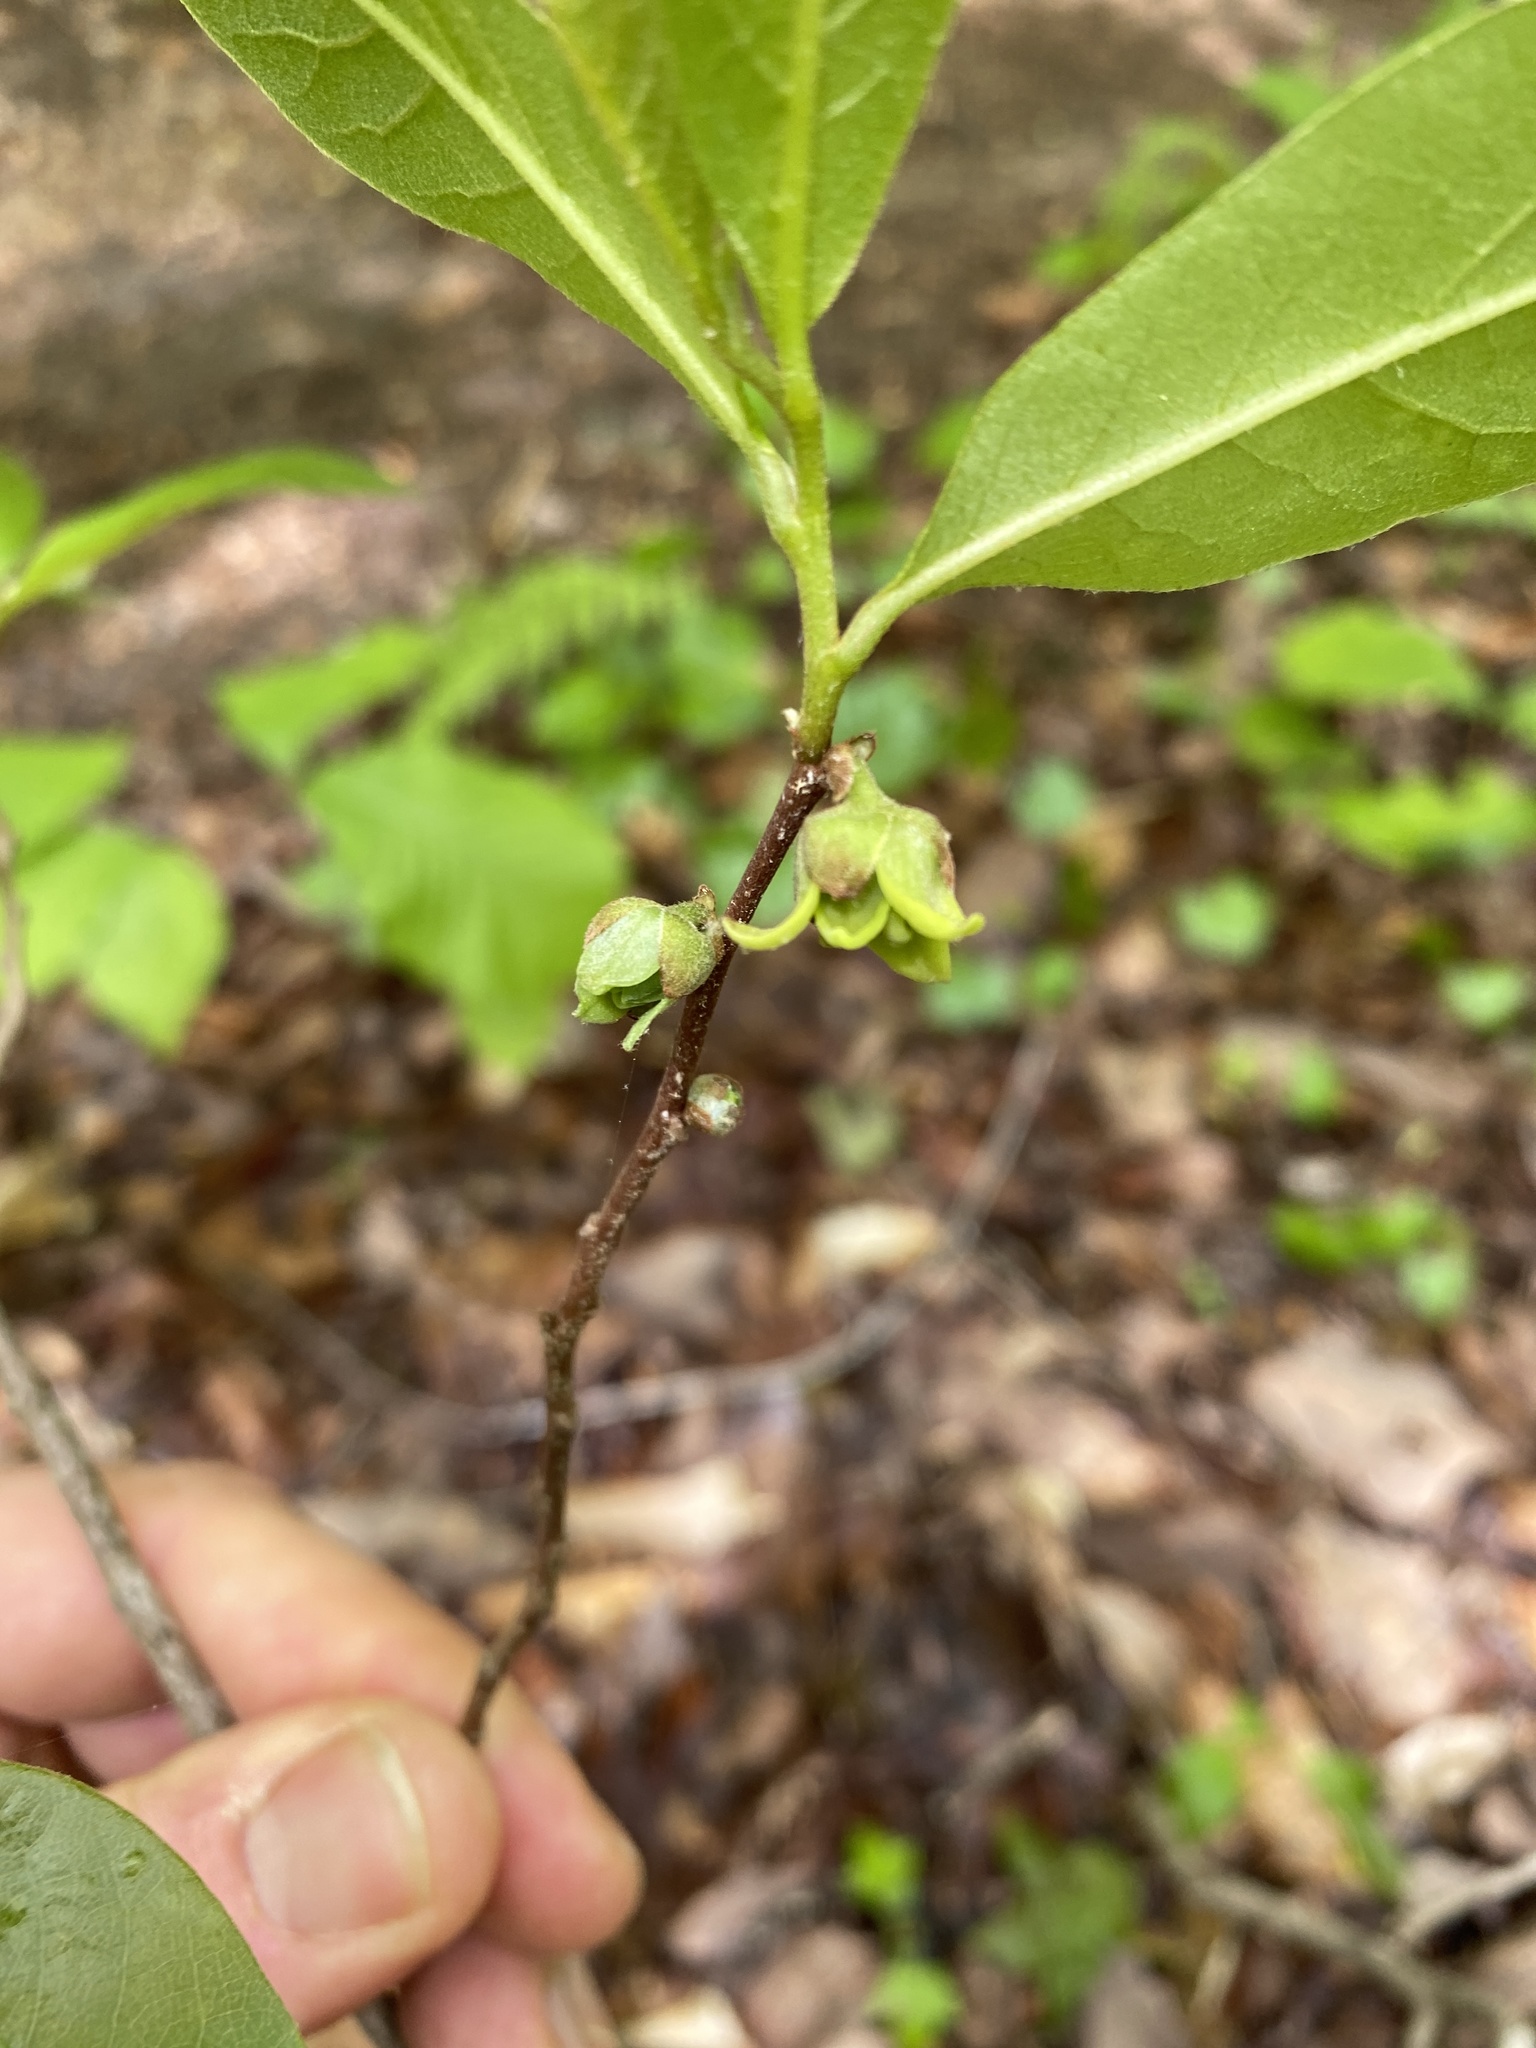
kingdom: Plantae
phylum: Tracheophyta
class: Magnoliopsida
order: Magnoliales
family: Annonaceae
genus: Asimina
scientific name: Asimina parviflora
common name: Dwarf pawpaw
